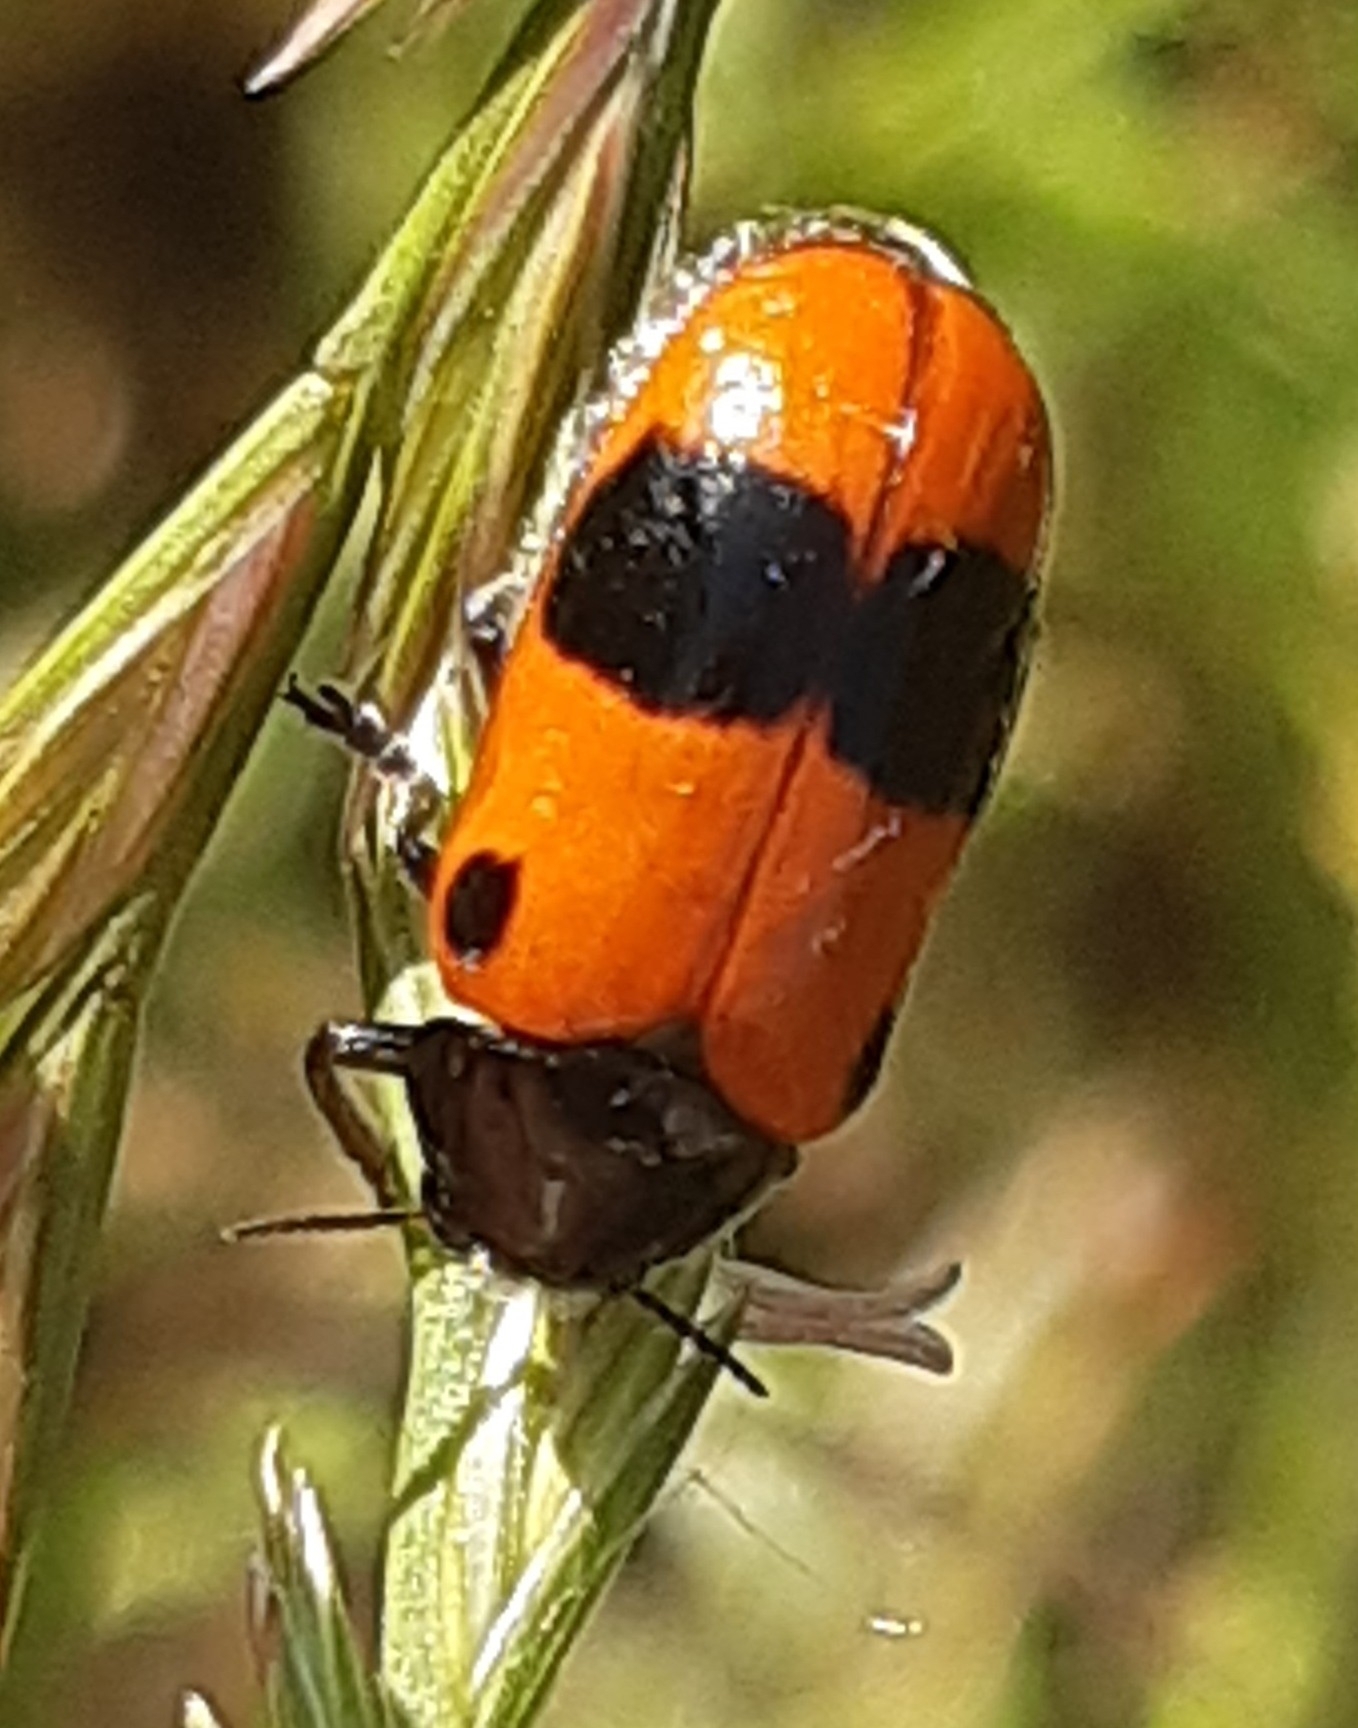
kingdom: Animalia
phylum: Arthropoda
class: Insecta
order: Coleoptera
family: Chrysomelidae
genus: Clytra
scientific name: Clytra laeviuscula
